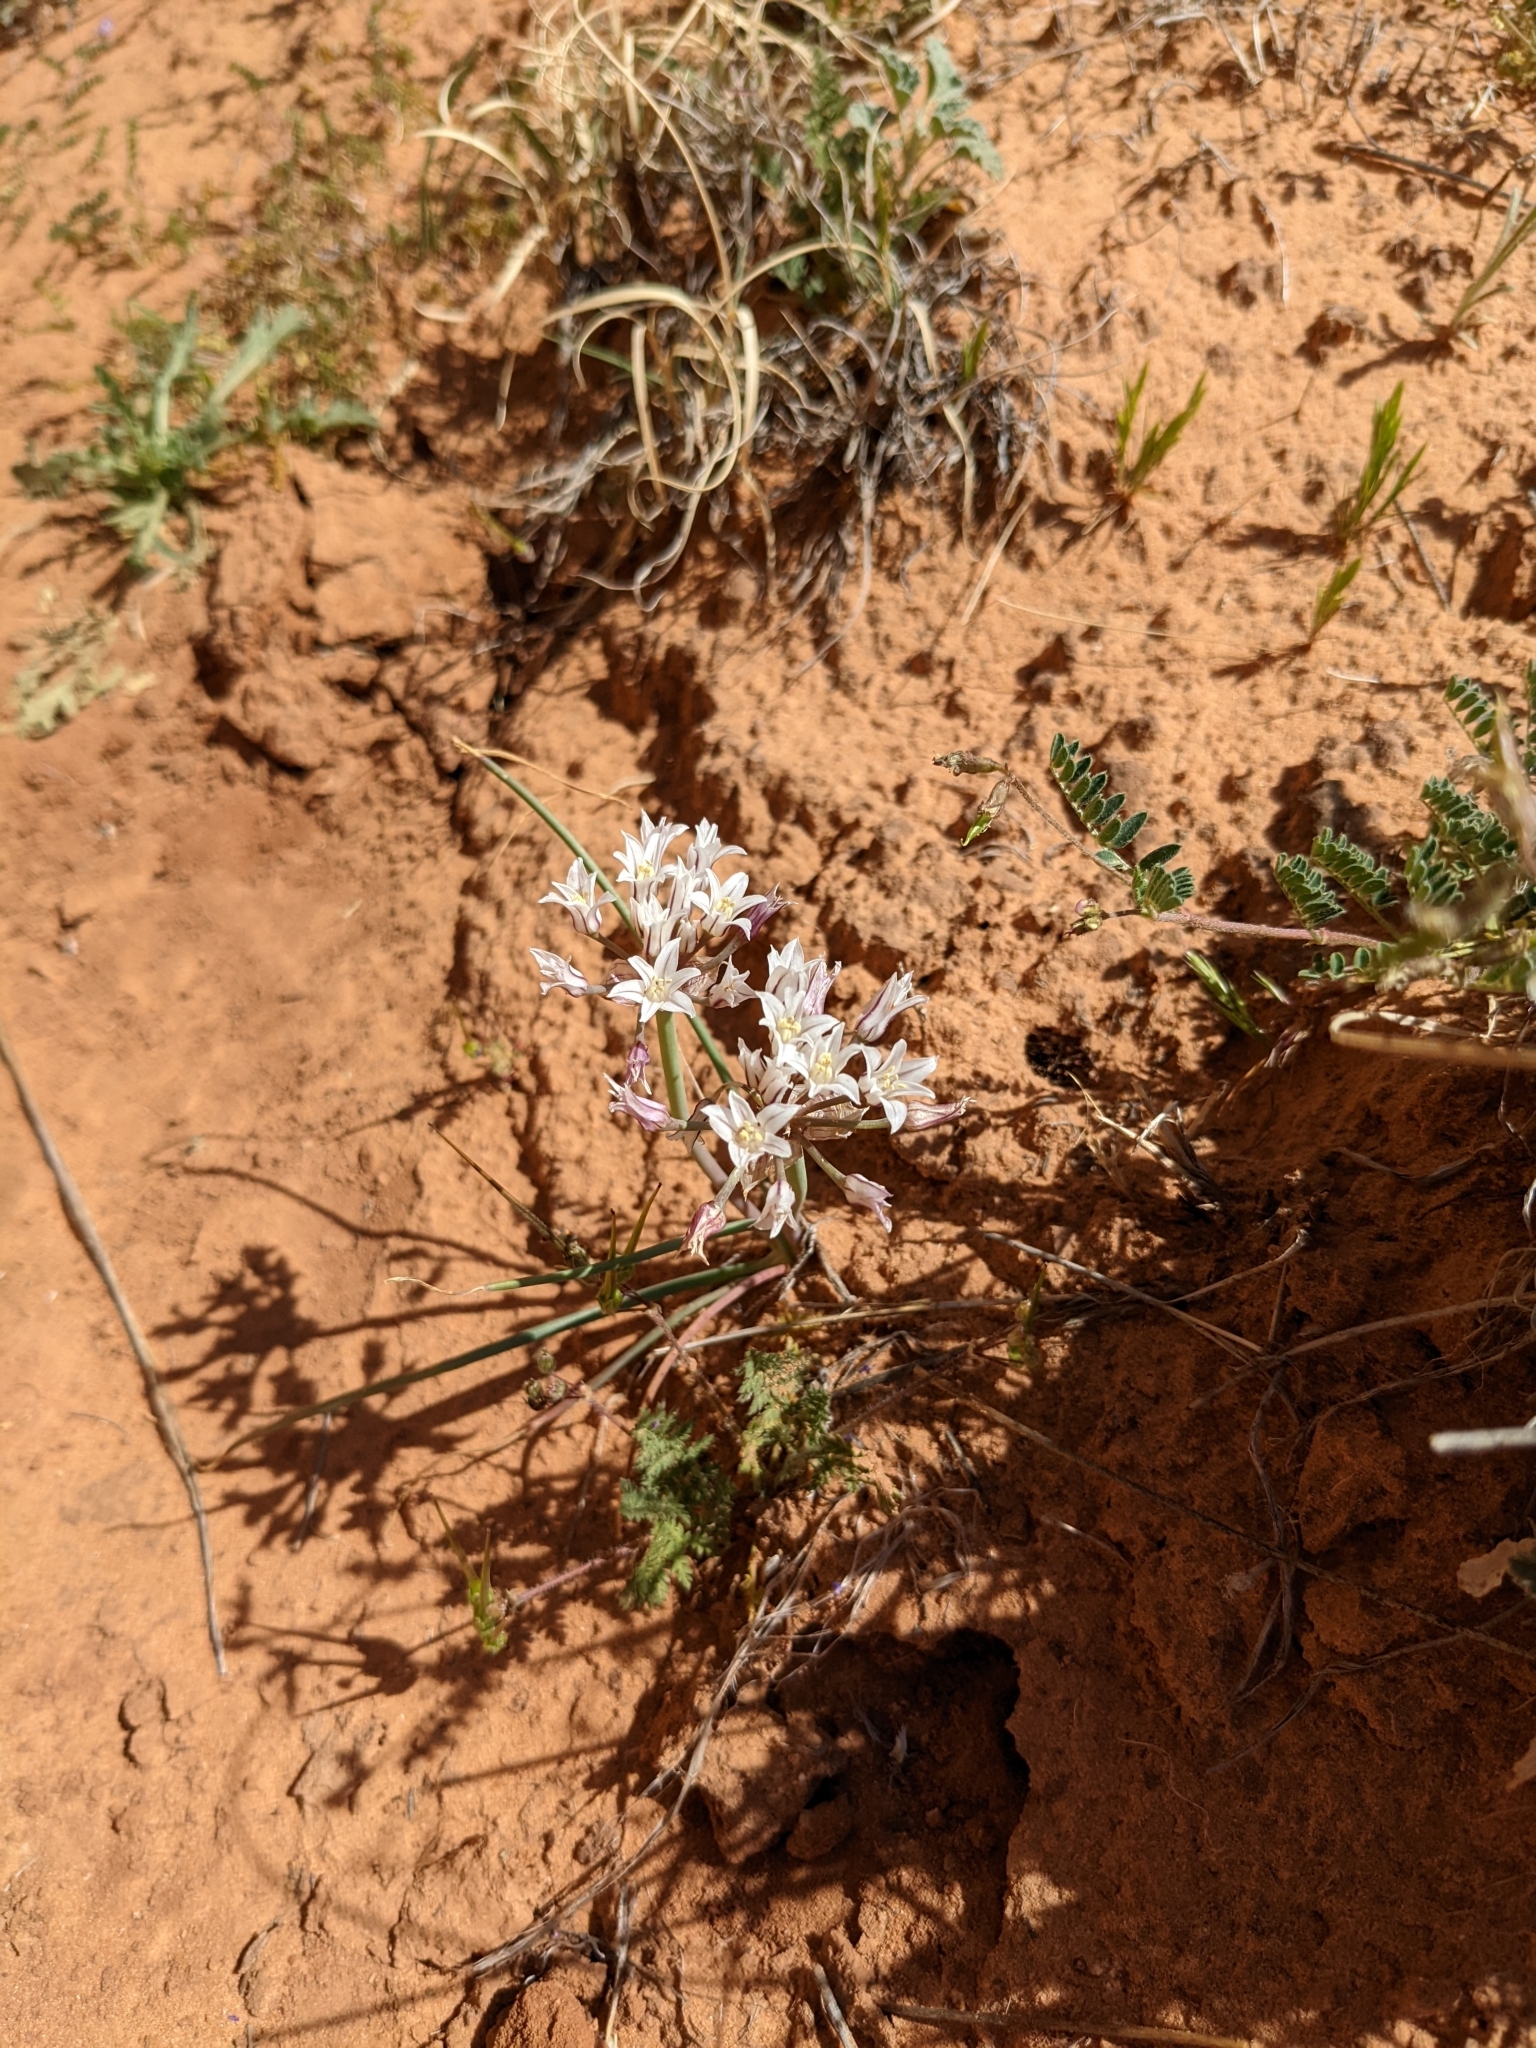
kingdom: Plantae
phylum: Tracheophyta
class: Liliopsida
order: Asparagales
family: Amaryllidaceae
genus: Allium
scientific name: Allium macropetalum
